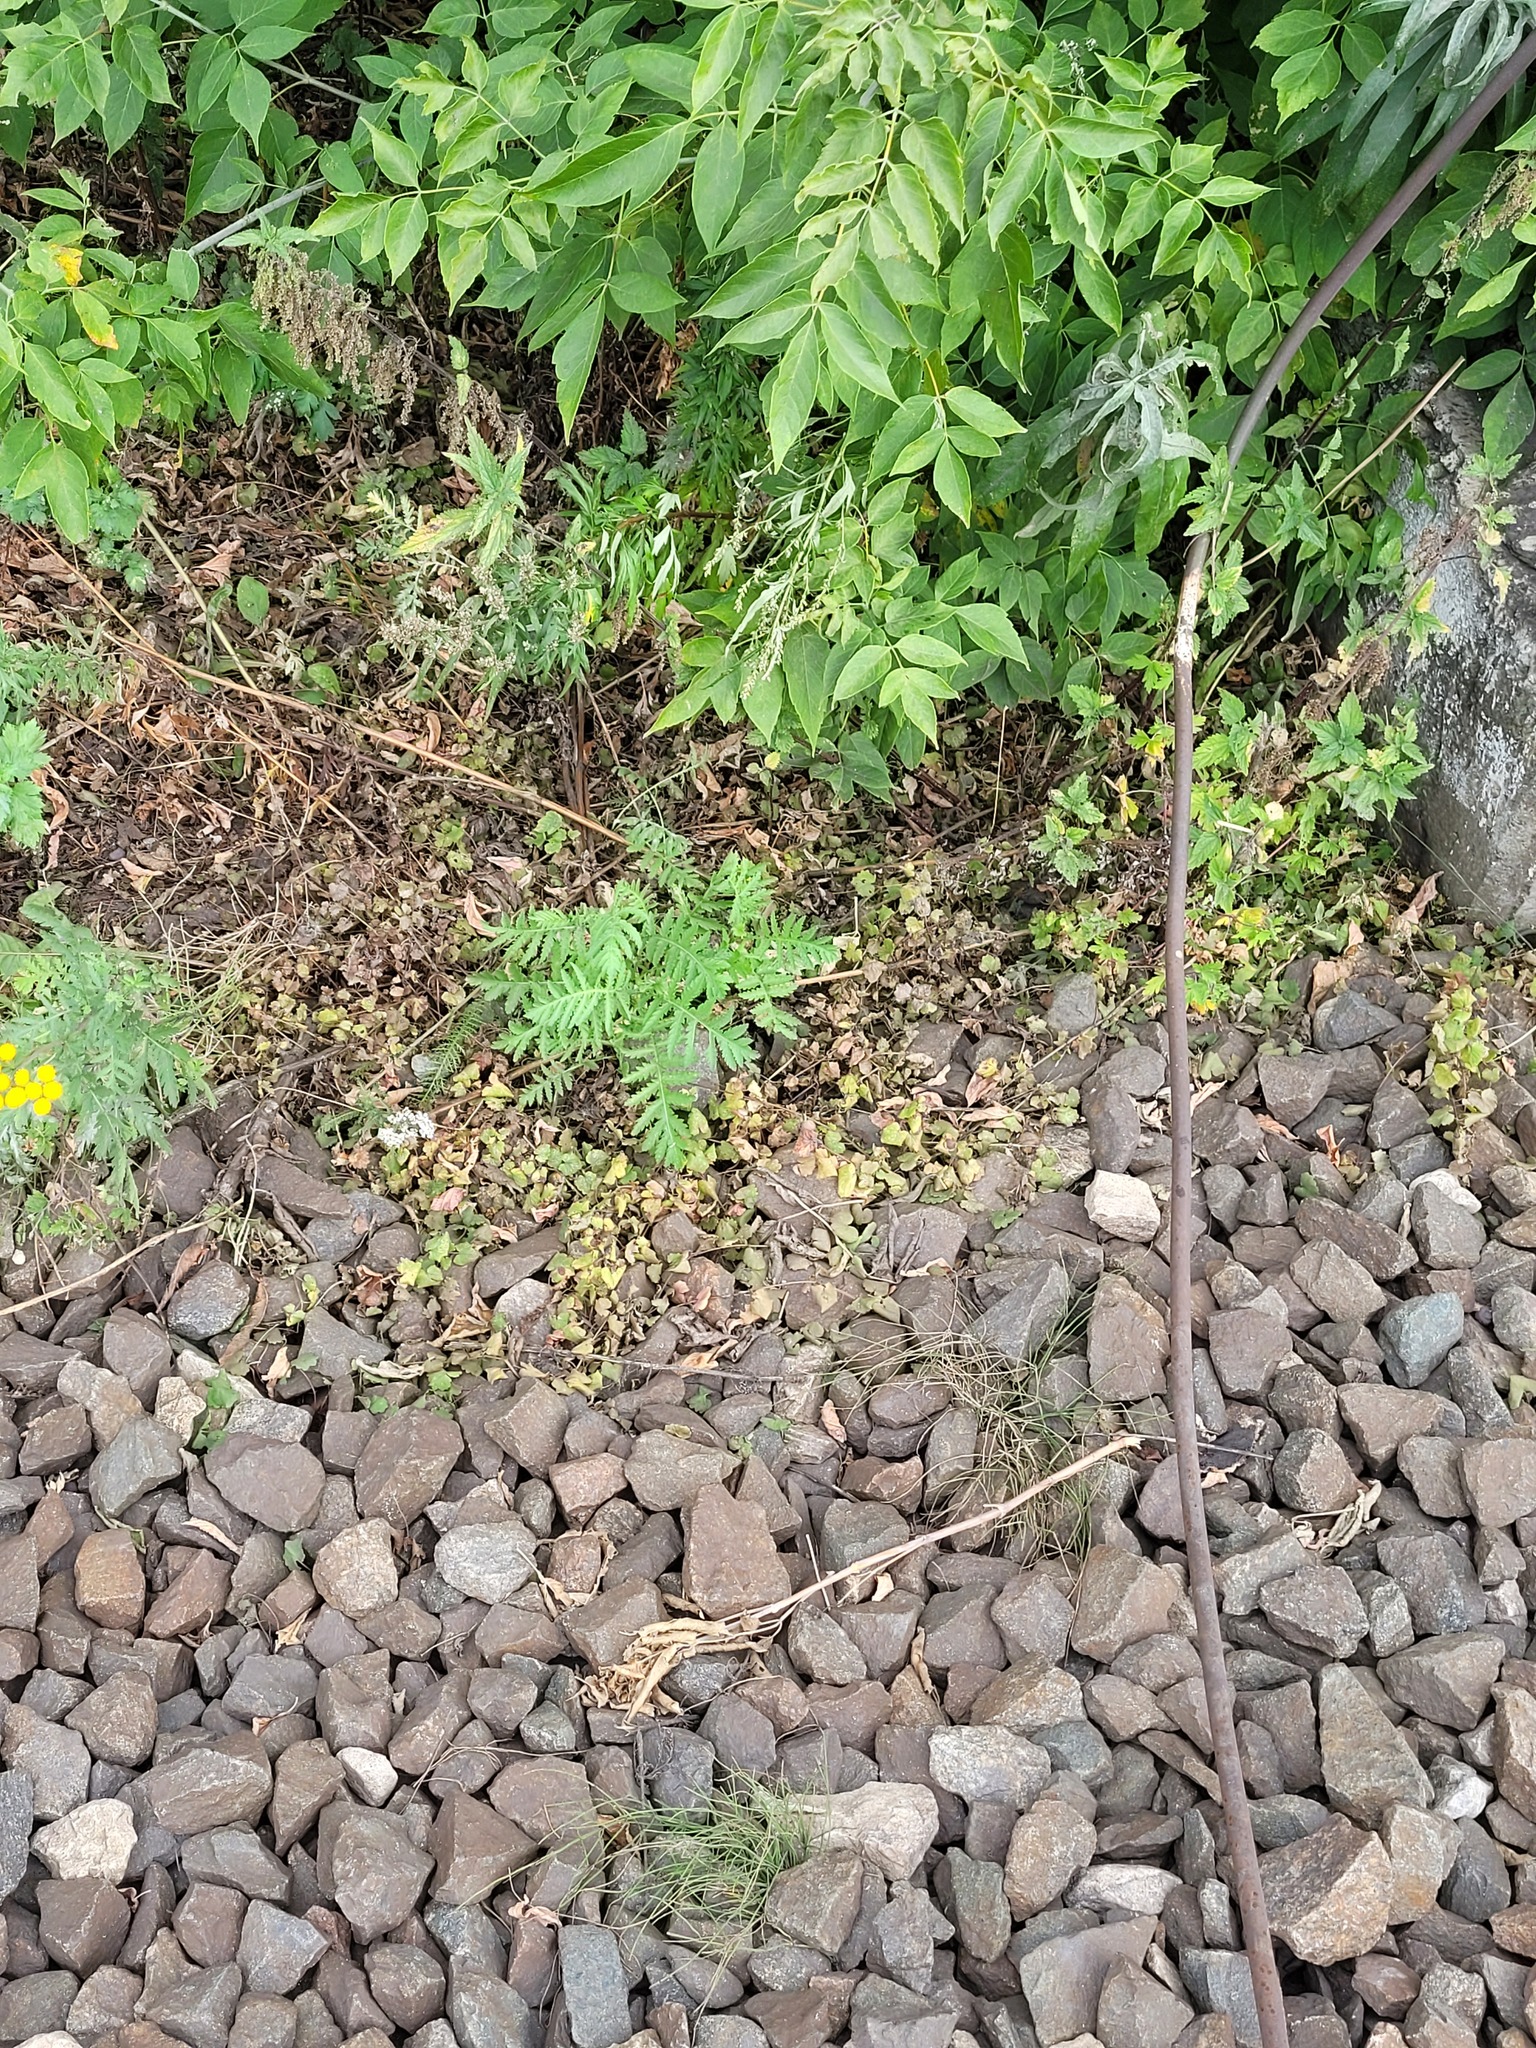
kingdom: Plantae
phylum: Tracheophyta
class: Magnoliopsida
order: Lamiales
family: Lamiaceae
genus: Glechoma
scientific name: Glechoma hederacea
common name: Ground ivy
